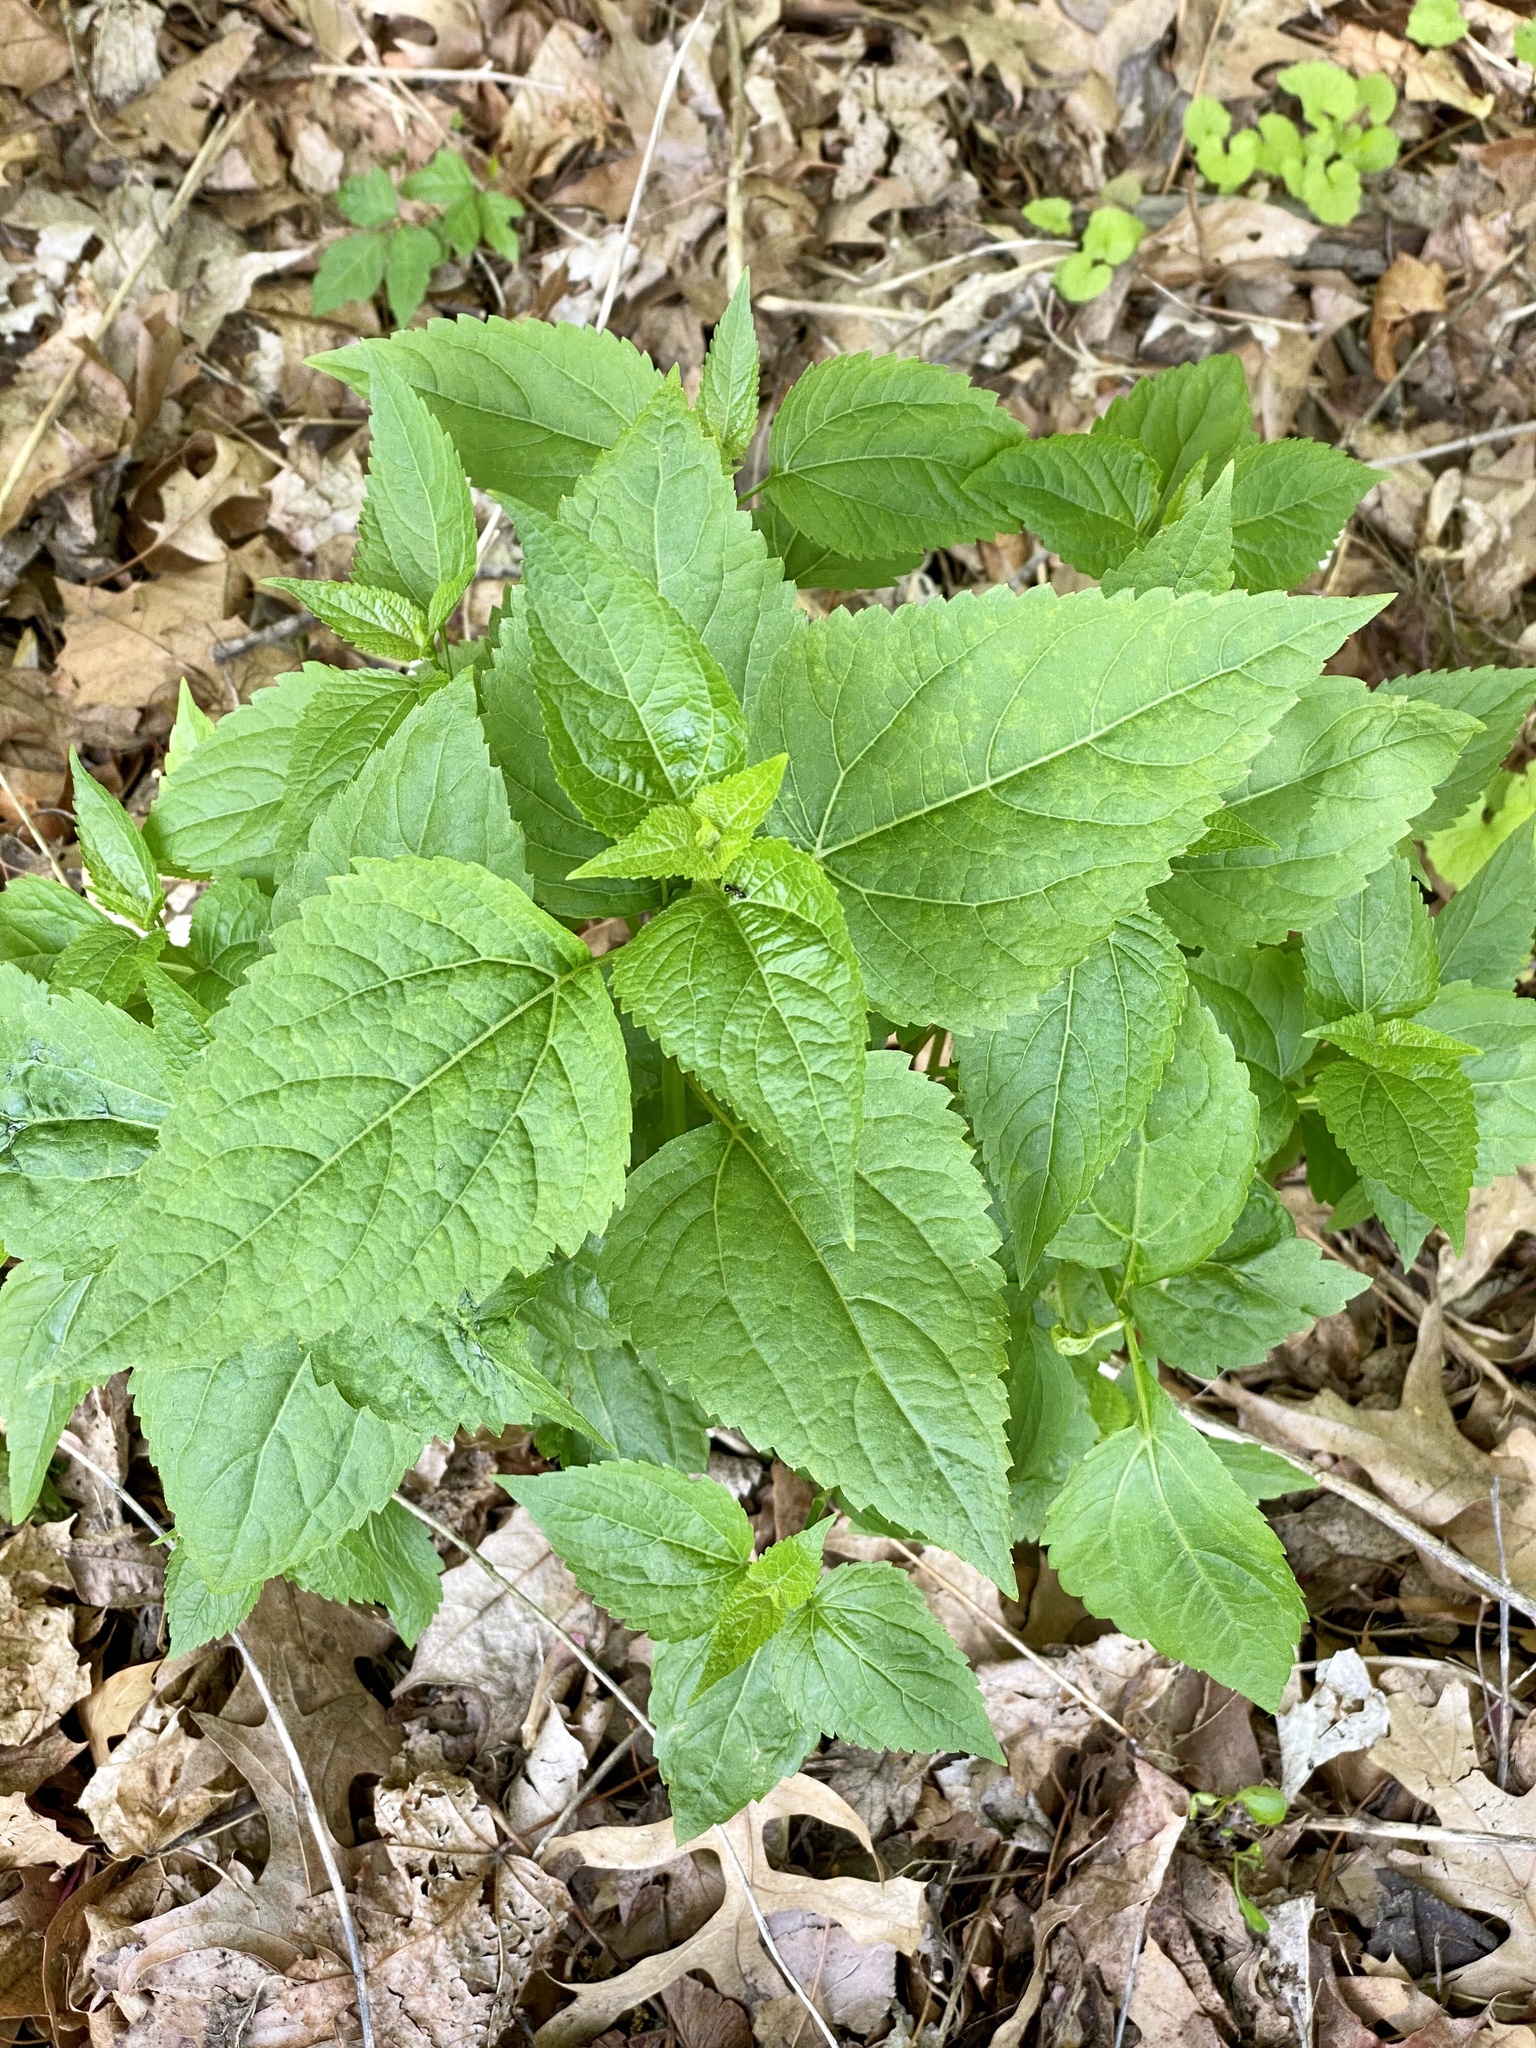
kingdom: Plantae
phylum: Tracheophyta
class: Magnoliopsida
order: Asterales
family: Asteraceae
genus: Ageratina
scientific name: Ageratina altissima
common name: White snakeroot
